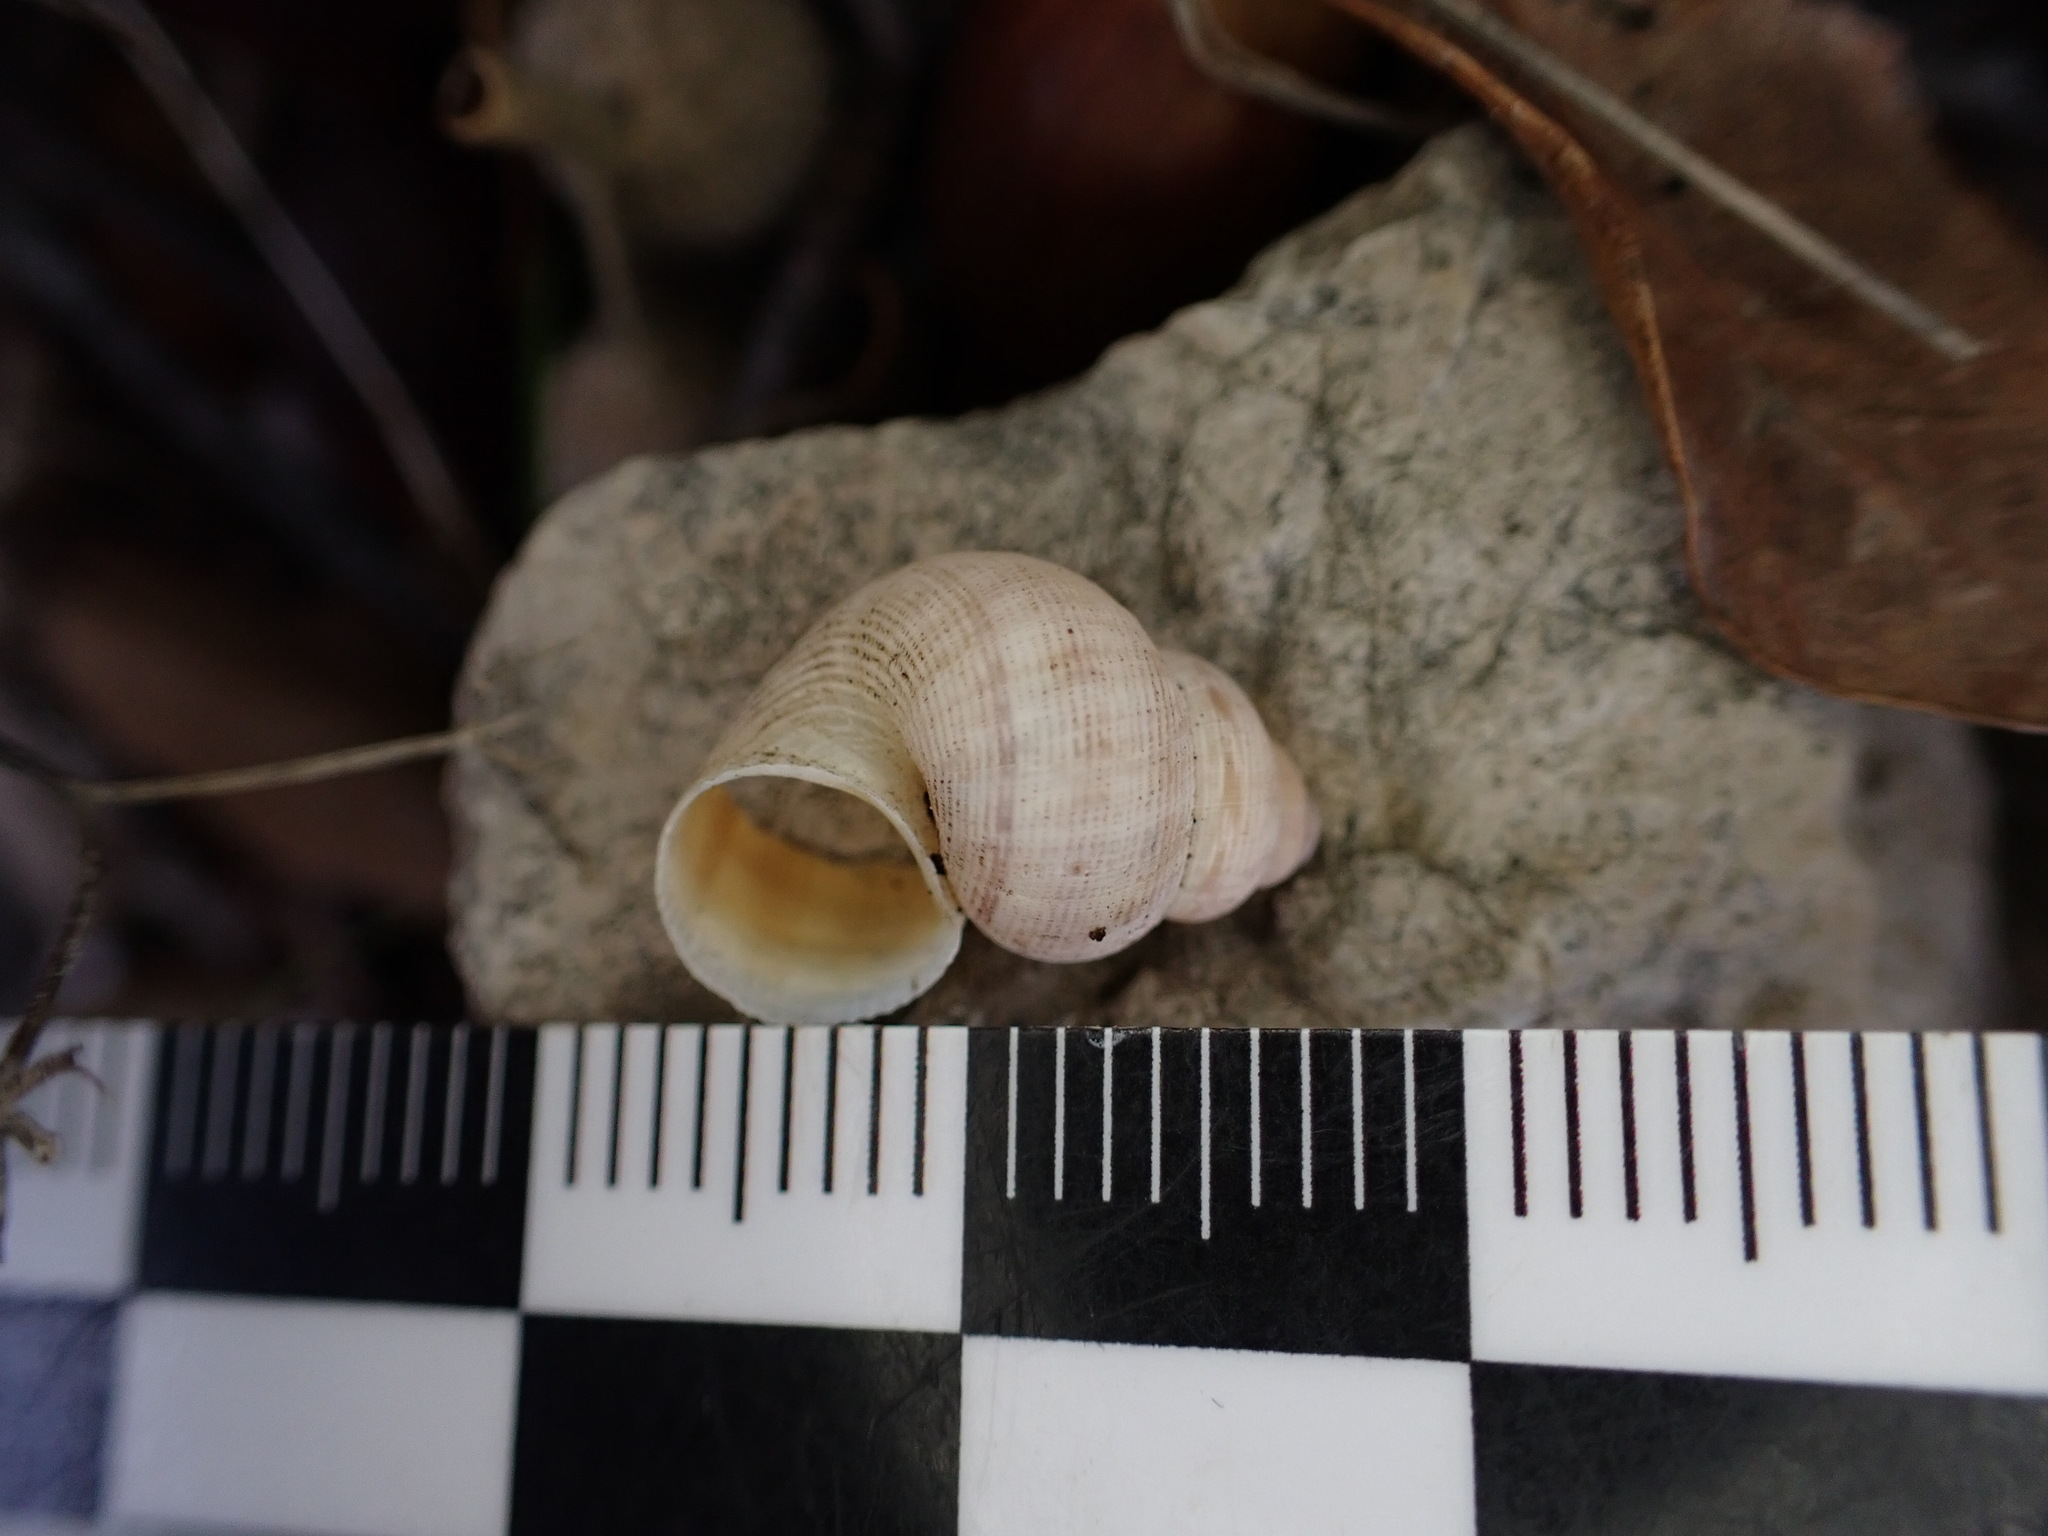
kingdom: Animalia
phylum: Mollusca
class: Gastropoda
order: Littorinimorpha
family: Pomatiidae
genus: Pomatias
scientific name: Pomatias elegans
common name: Red-mouthed snail
